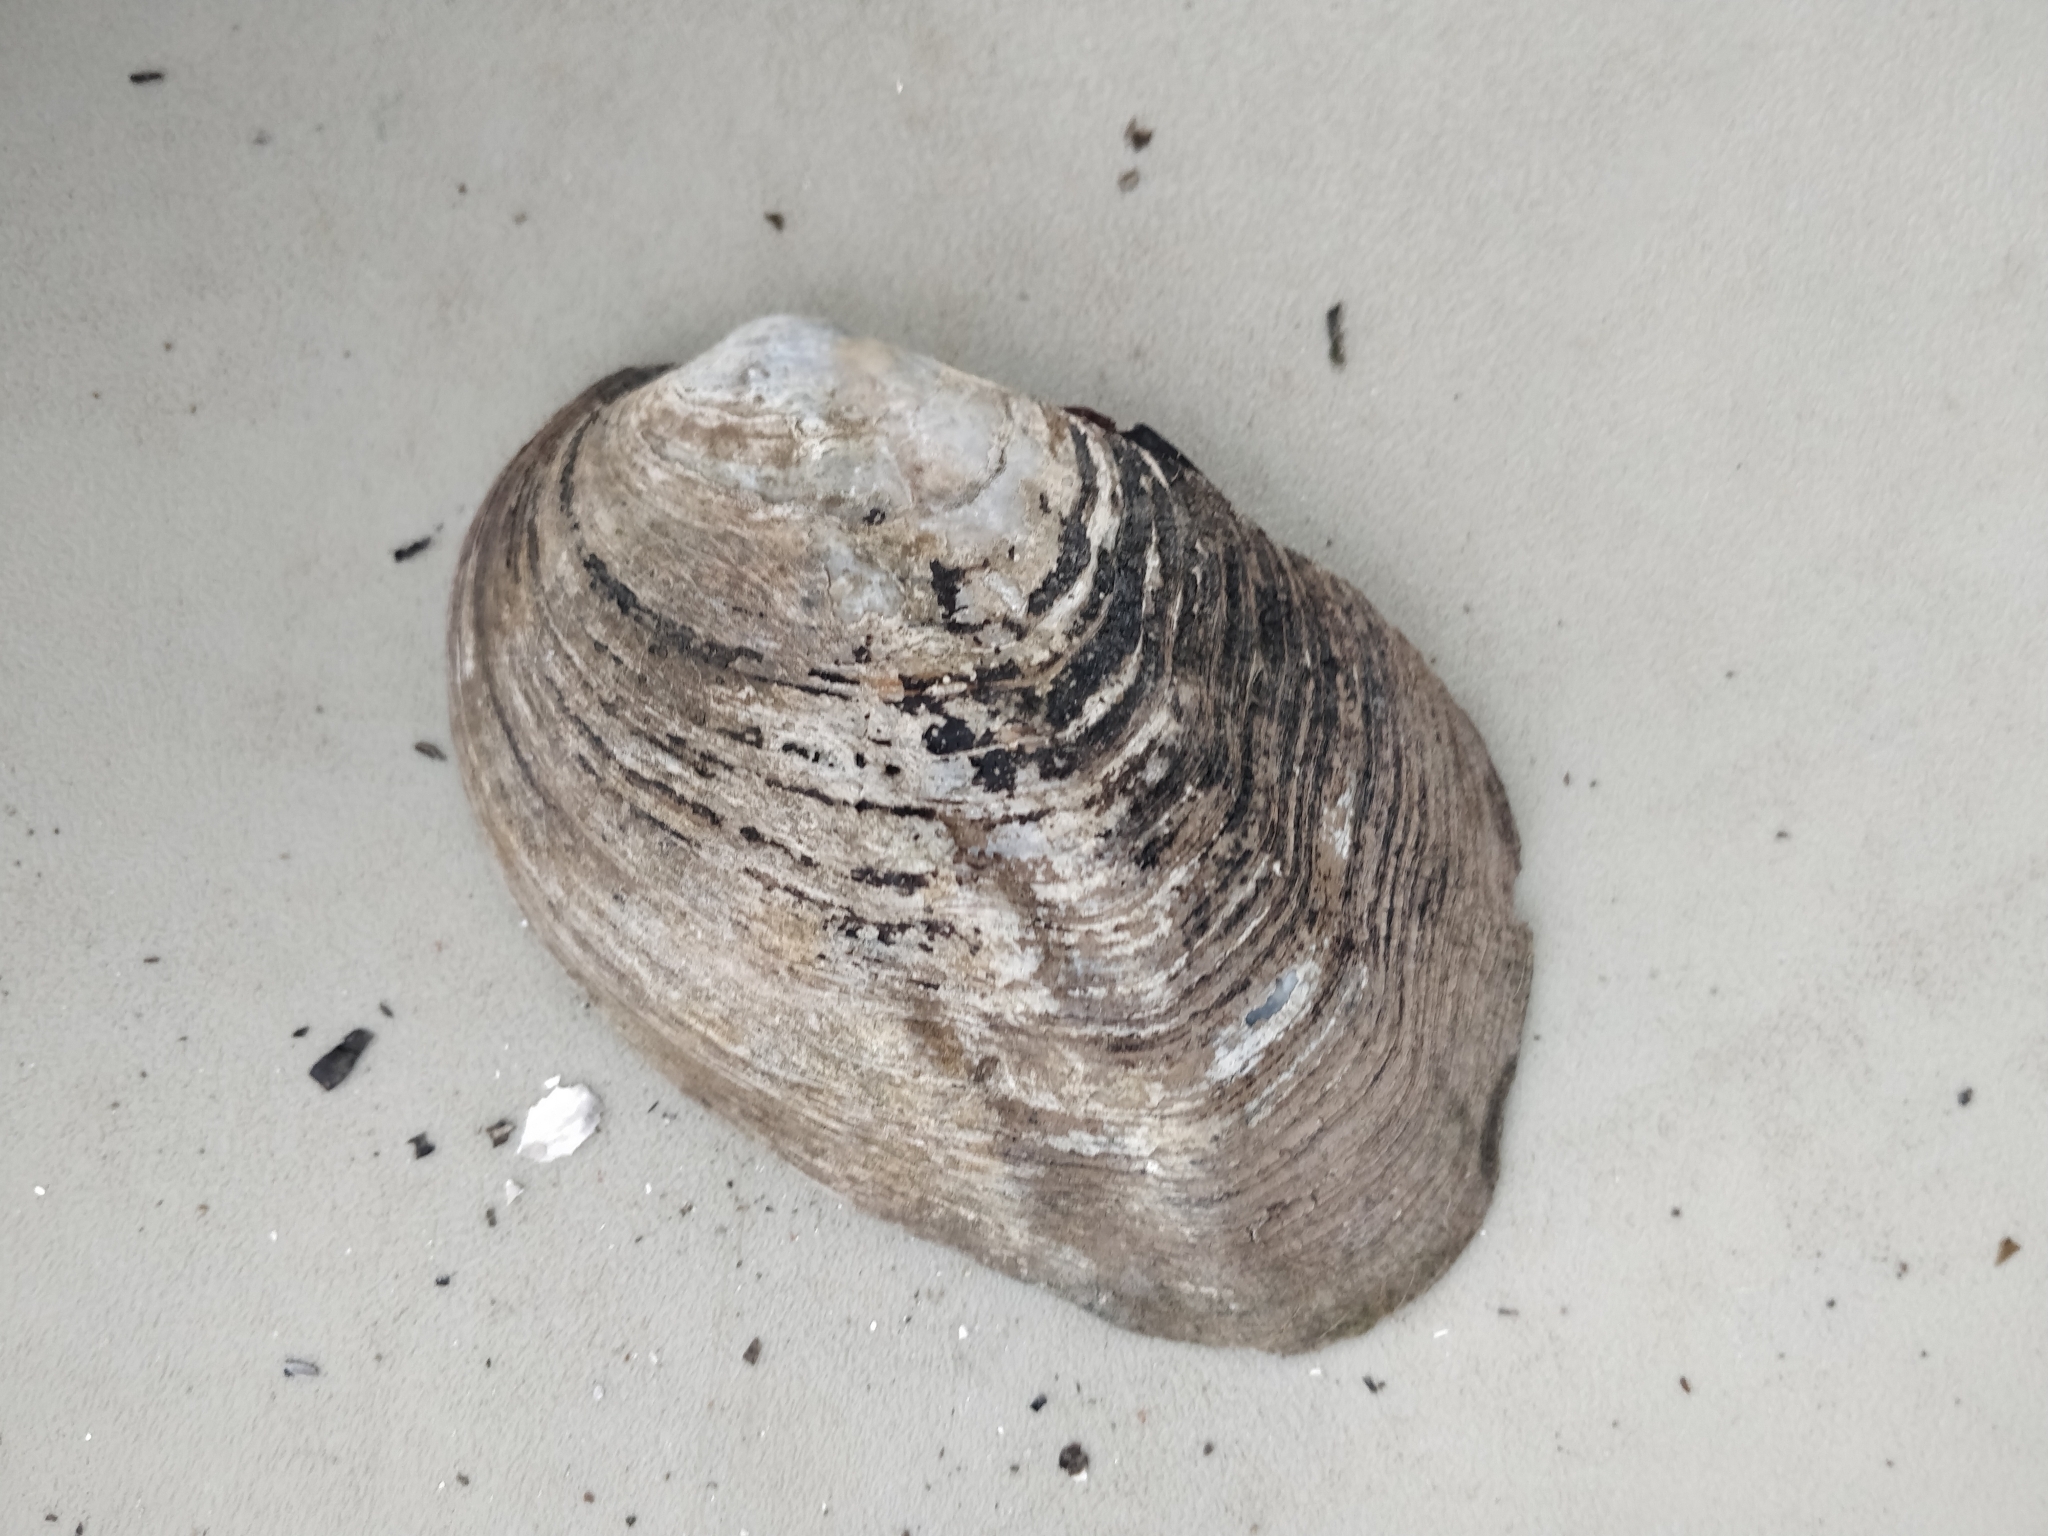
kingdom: Animalia
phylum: Mollusca
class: Bivalvia
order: Unionida
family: Unionidae
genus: Amblema
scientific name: Amblema plicata
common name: Threeridge
